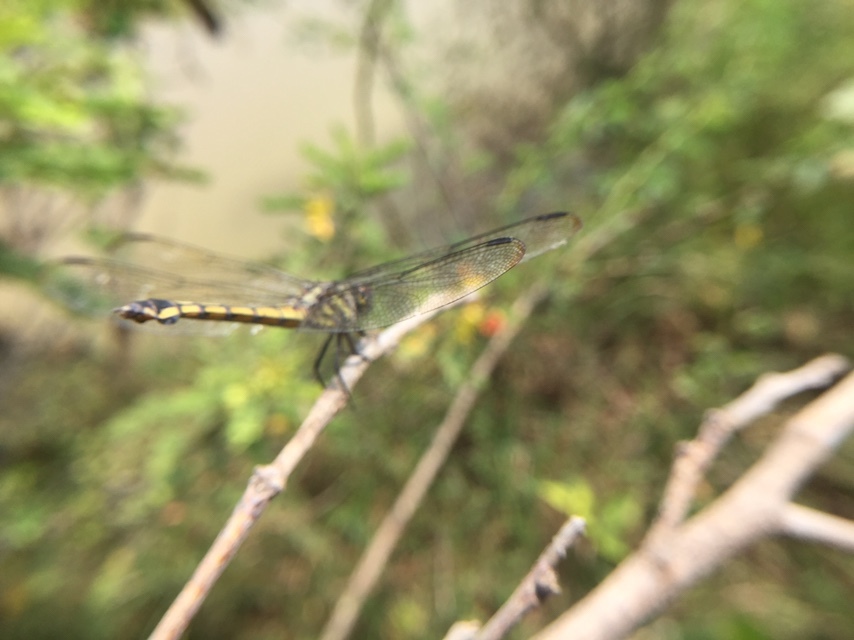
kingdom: Animalia
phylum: Arthropoda
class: Insecta
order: Odonata
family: Libellulidae
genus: Potamarcha
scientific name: Potamarcha congener
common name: Blue chaser
